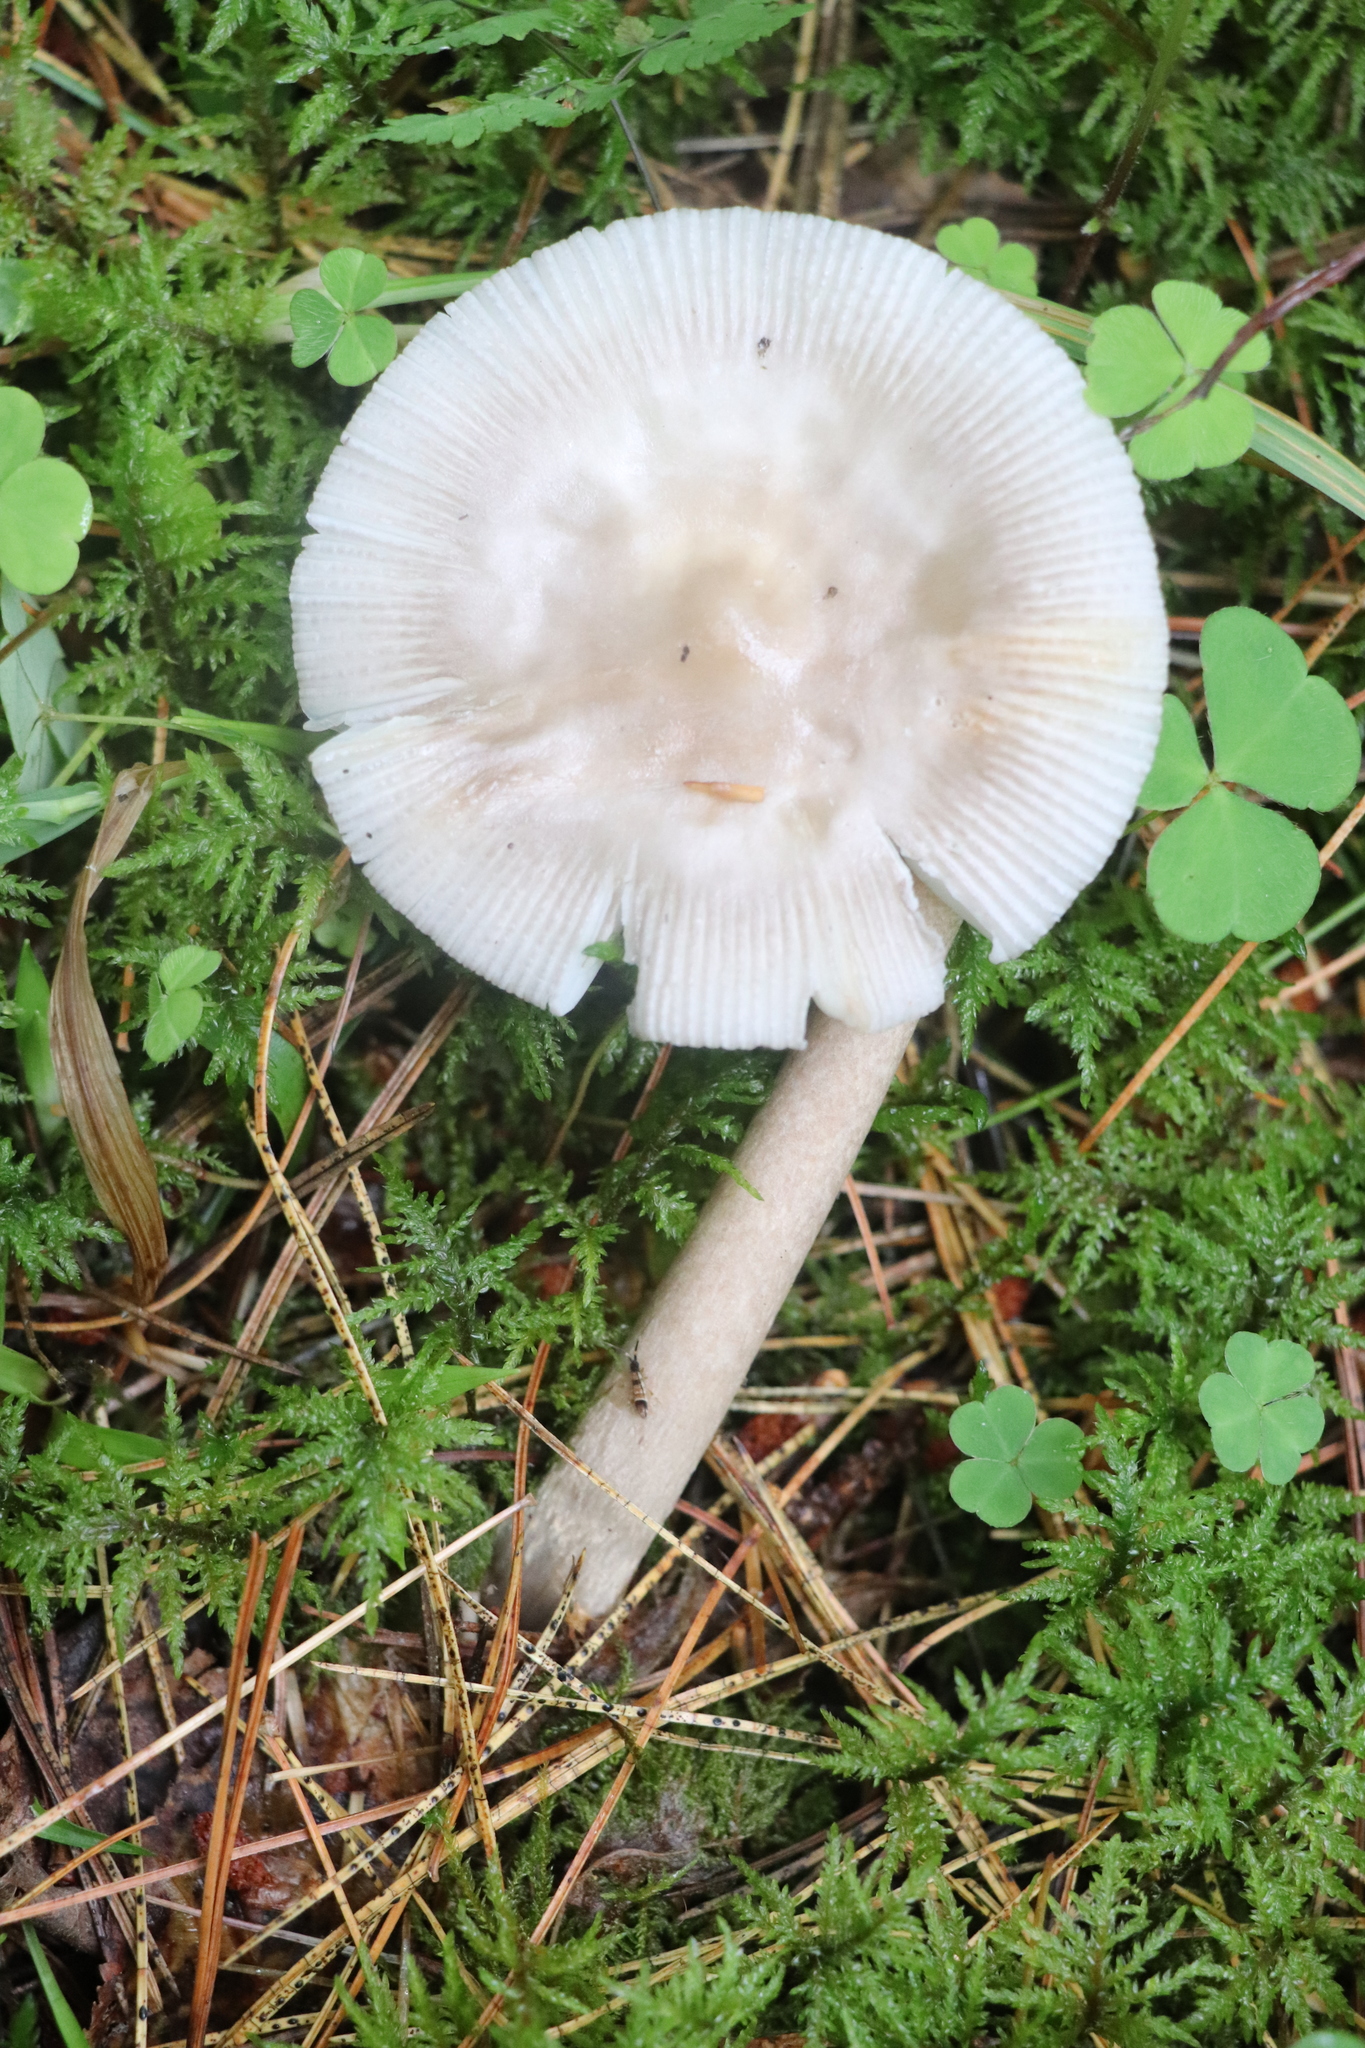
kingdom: Fungi
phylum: Basidiomycota
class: Agaricomycetes
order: Agaricales
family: Amanitaceae
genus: Amanita
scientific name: Amanita battarrae
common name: Banded amanita
